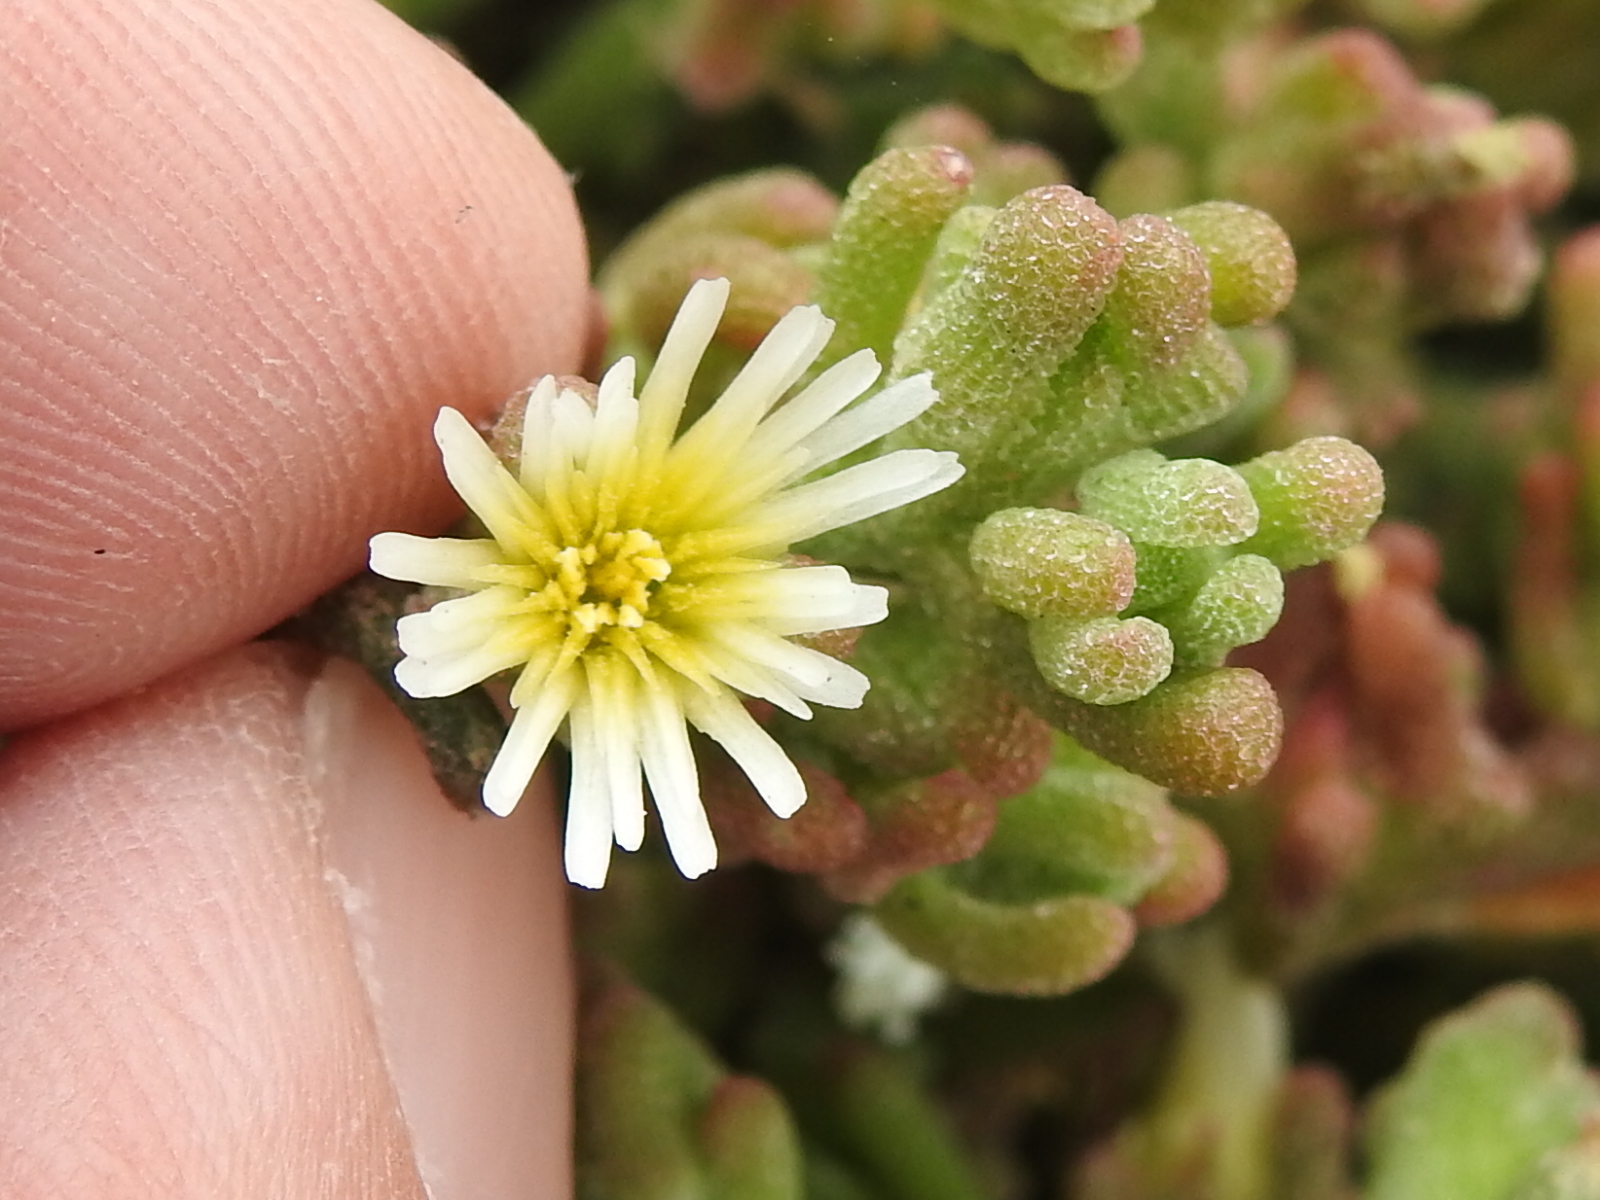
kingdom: Plantae
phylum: Tracheophyta
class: Magnoliopsida
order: Caryophyllales
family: Aizoaceae
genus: Mesembryanthemum
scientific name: Mesembryanthemum nodiflorum
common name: Slenderleaf iceplant
